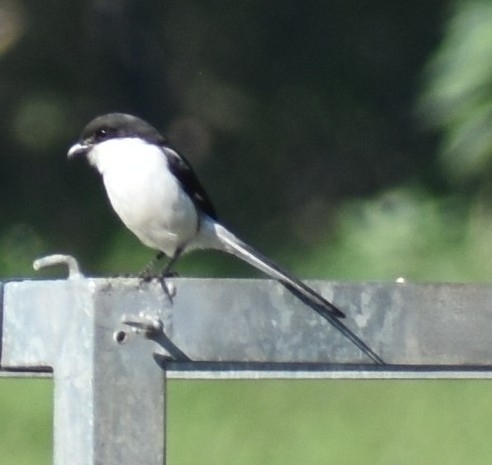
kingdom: Animalia
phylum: Chordata
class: Aves
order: Passeriformes
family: Laniidae
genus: Lanius
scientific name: Lanius collaris
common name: Southern fiscal
